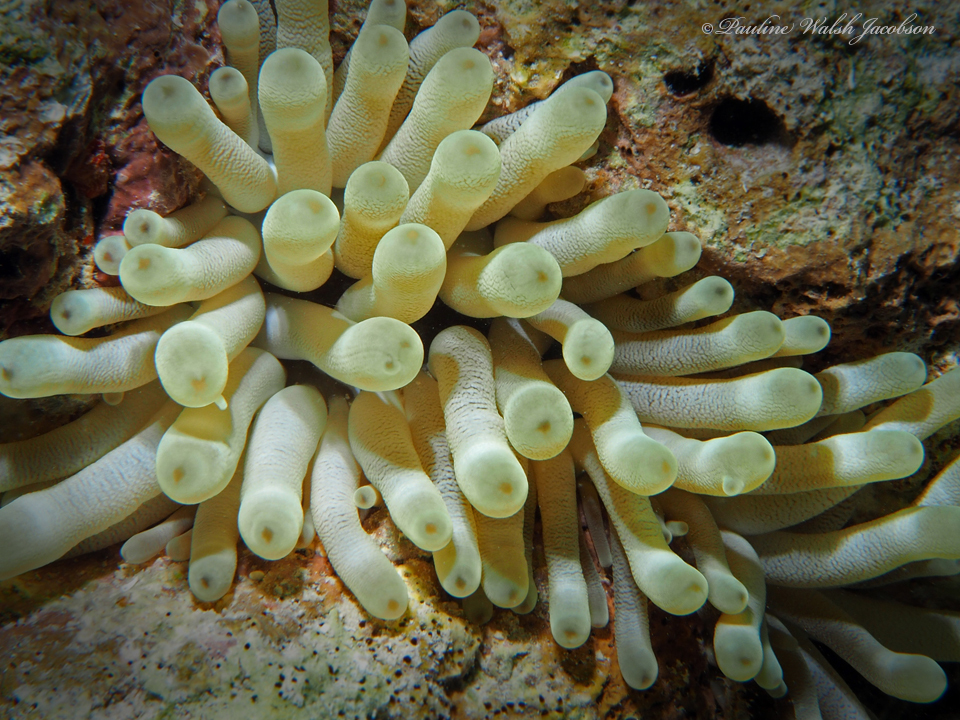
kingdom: Animalia
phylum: Cnidaria
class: Anthozoa
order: Actiniaria
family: Actiniidae
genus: Condylactis
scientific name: Condylactis gigantea
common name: Giant caribbean anemone
